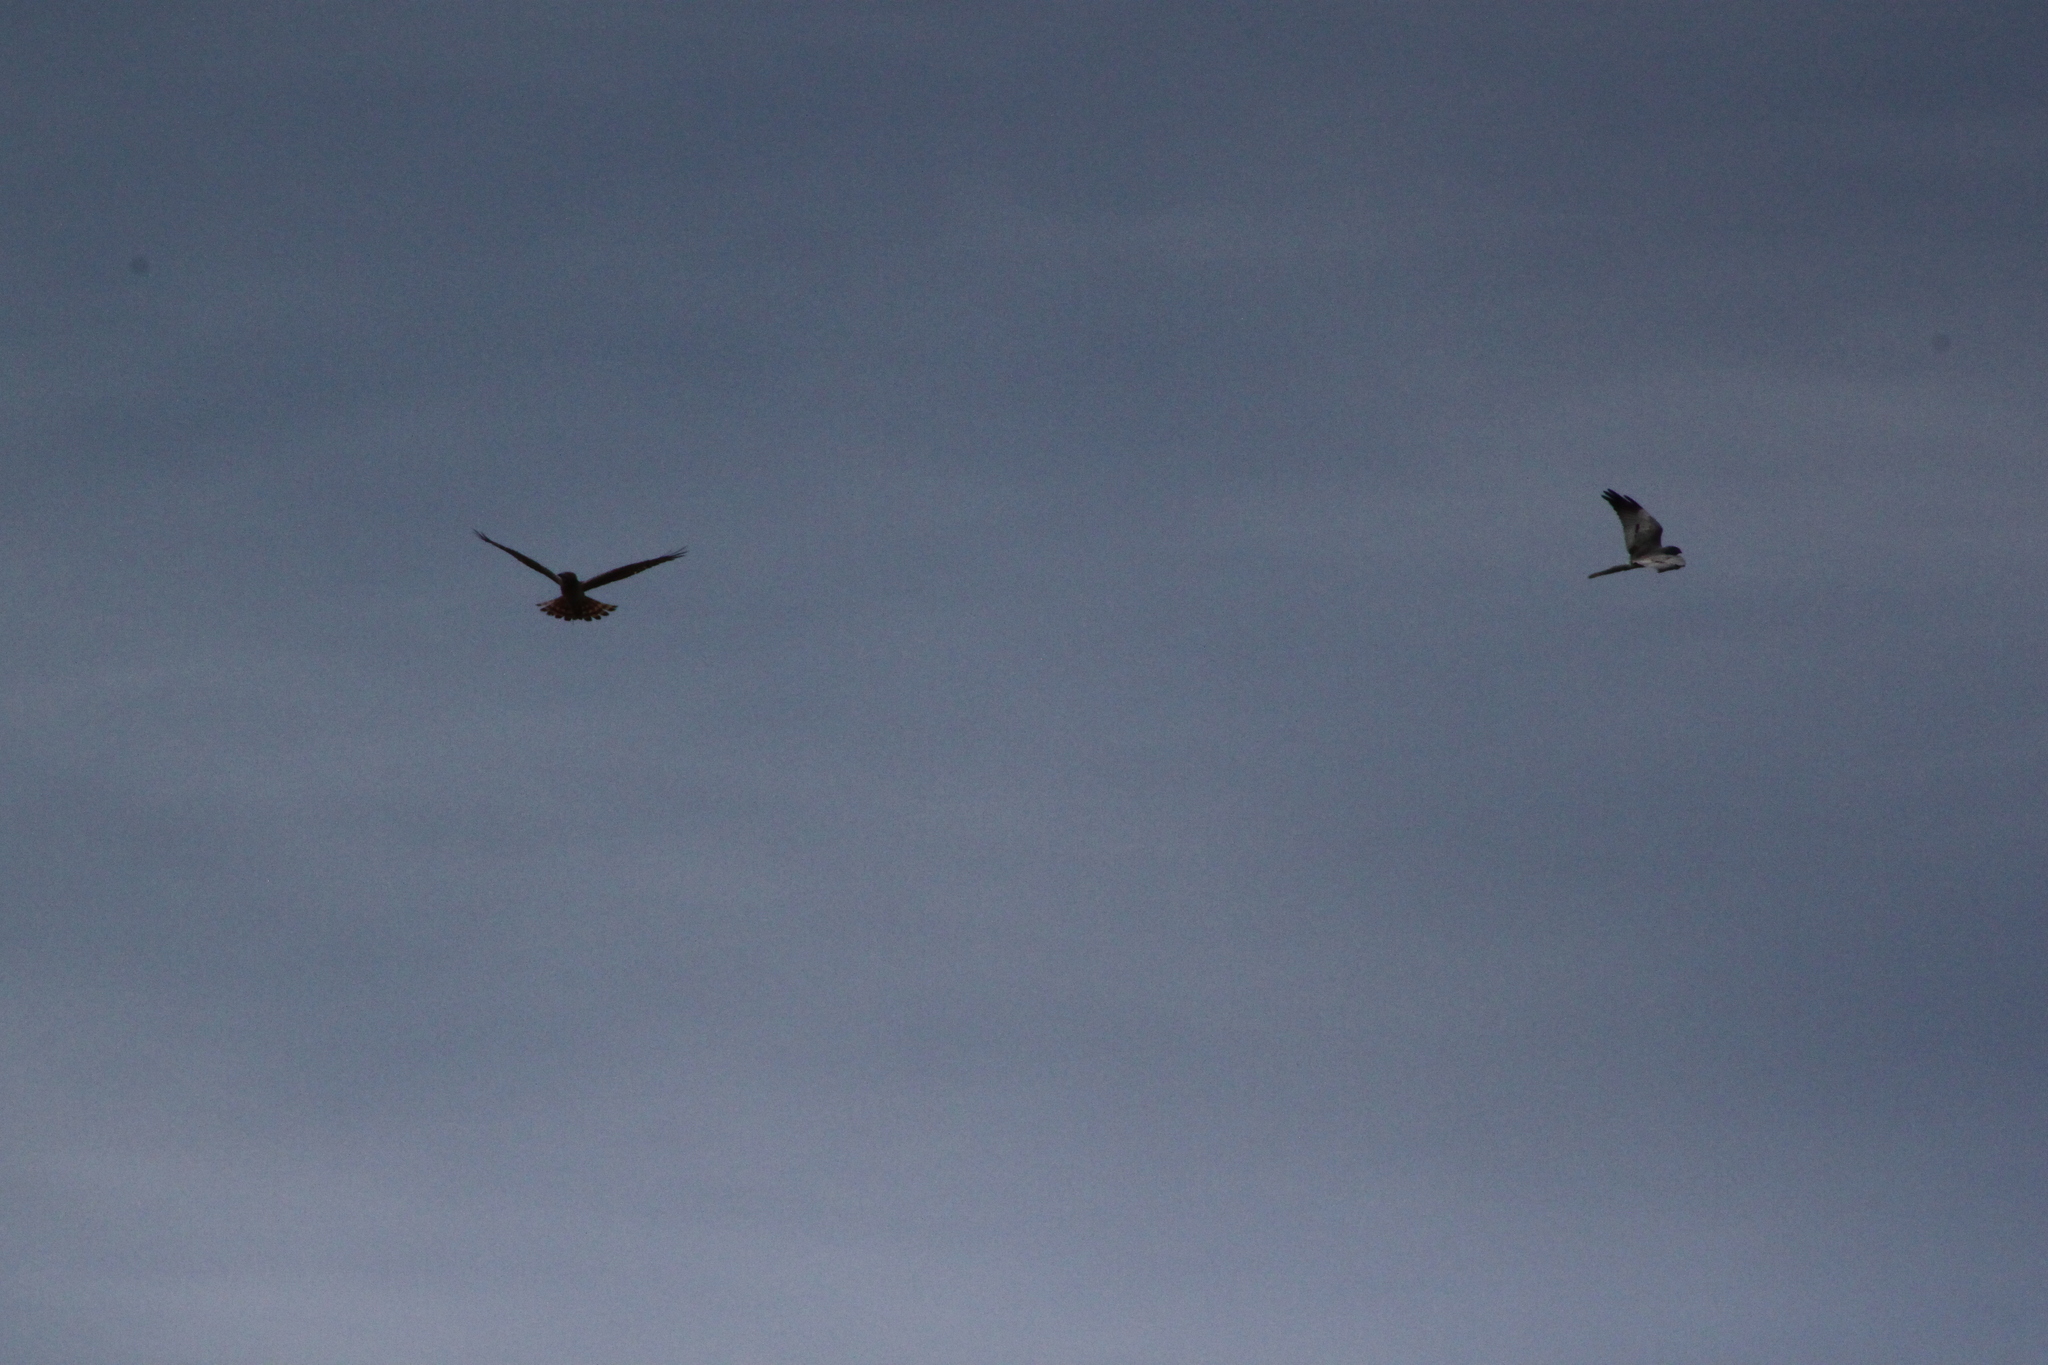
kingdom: Animalia
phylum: Chordata
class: Aves
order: Accipitriformes
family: Accipitridae
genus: Circus
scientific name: Circus pygargus
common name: Montagu's harrier
